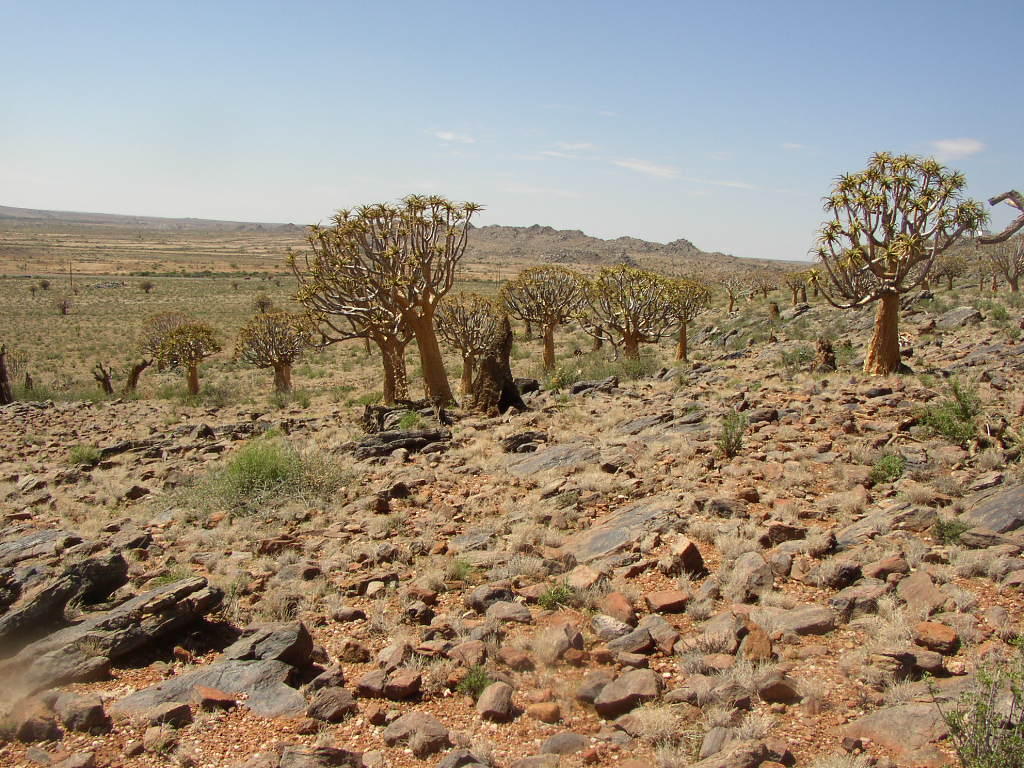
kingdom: Plantae
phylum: Tracheophyta
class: Liliopsida
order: Asparagales
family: Asphodelaceae
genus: Aloidendron
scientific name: Aloidendron dichotomum
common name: Quiver tree
